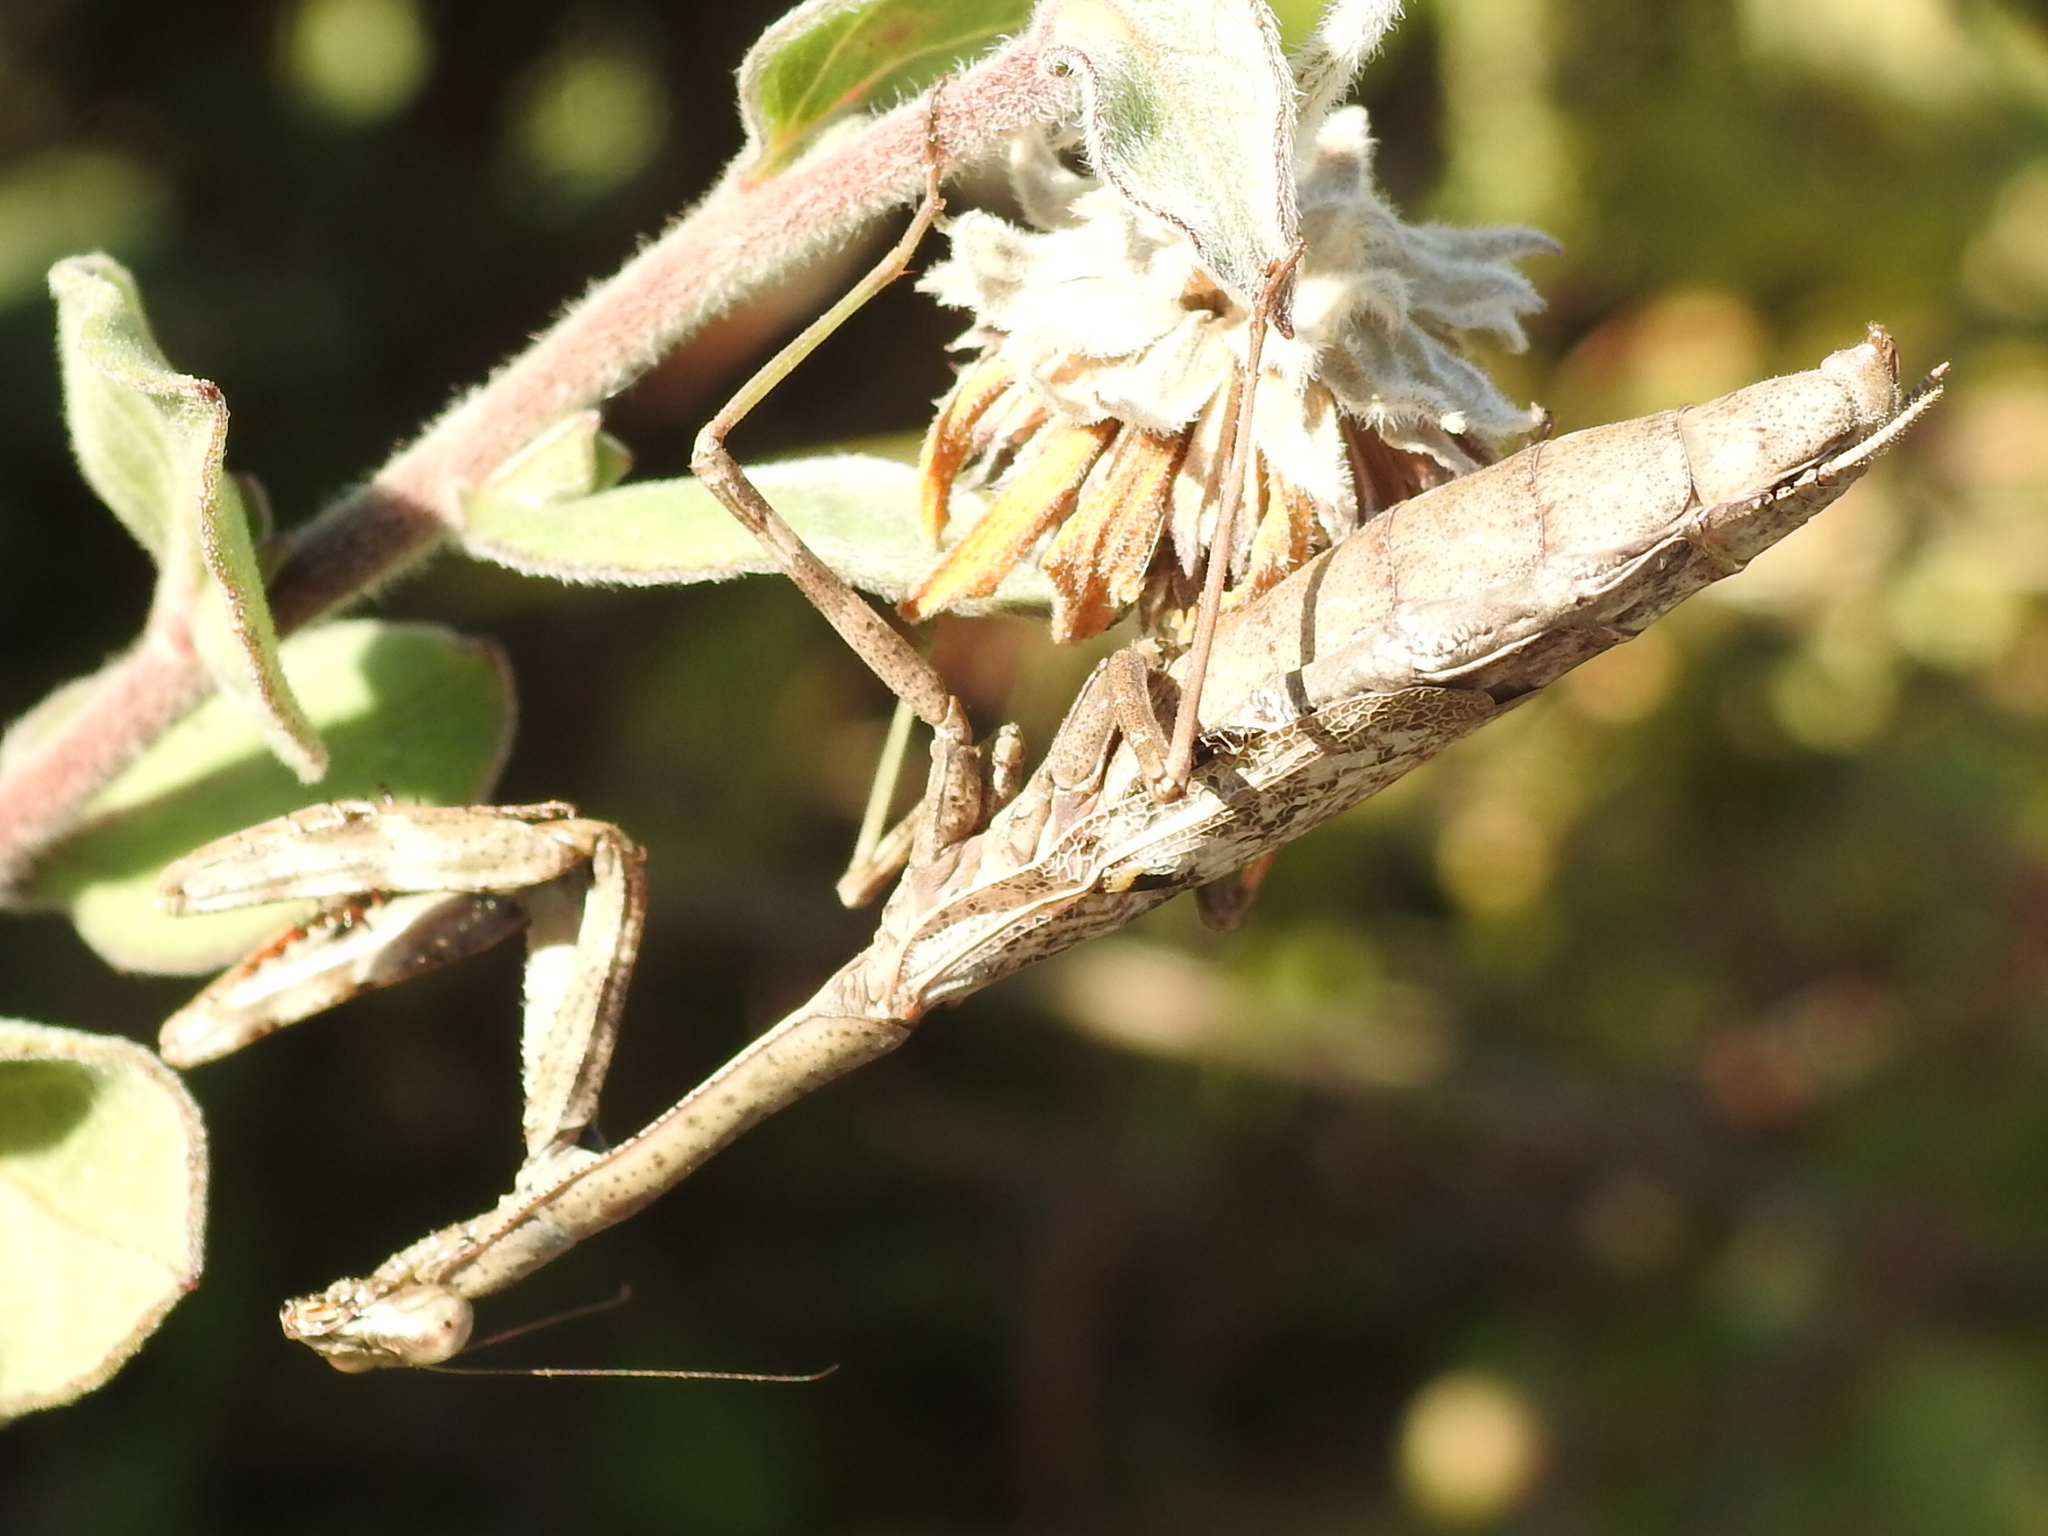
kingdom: Animalia
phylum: Arthropoda
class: Insecta
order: Mantodea
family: Mantidae
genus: Stagmomantis
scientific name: Stagmomantis carolina
